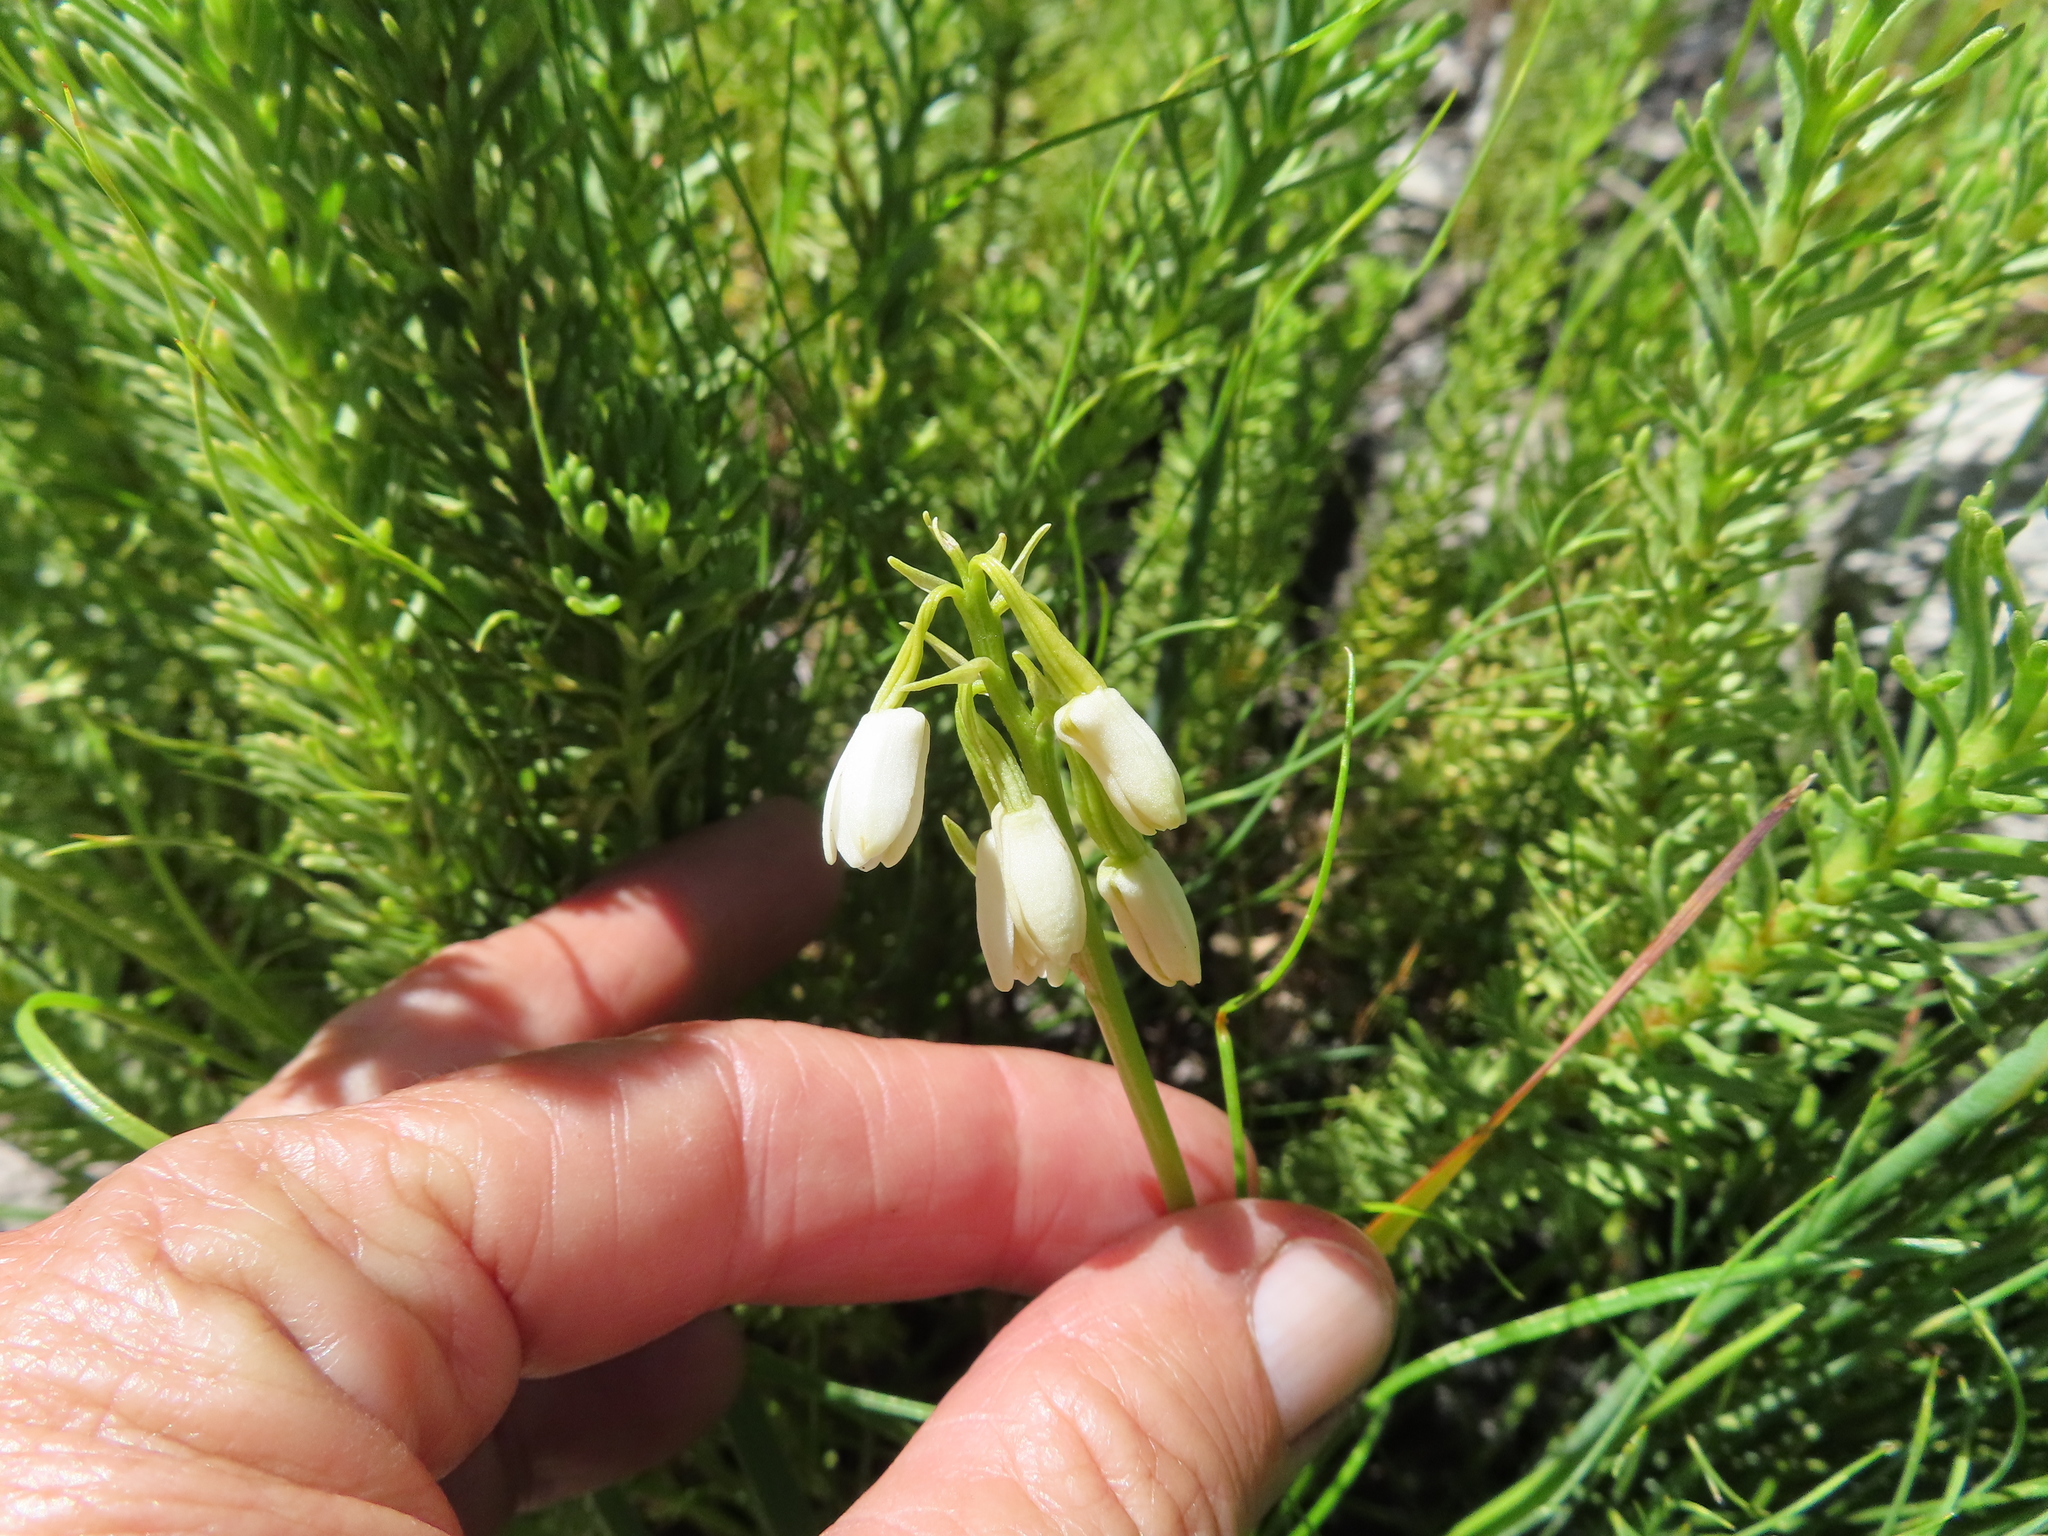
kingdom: Plantae
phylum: Tracheophyta
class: Liliopsida
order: Asparagales
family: Orchidaceae
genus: Eulophia
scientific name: Eulophia aculeata
